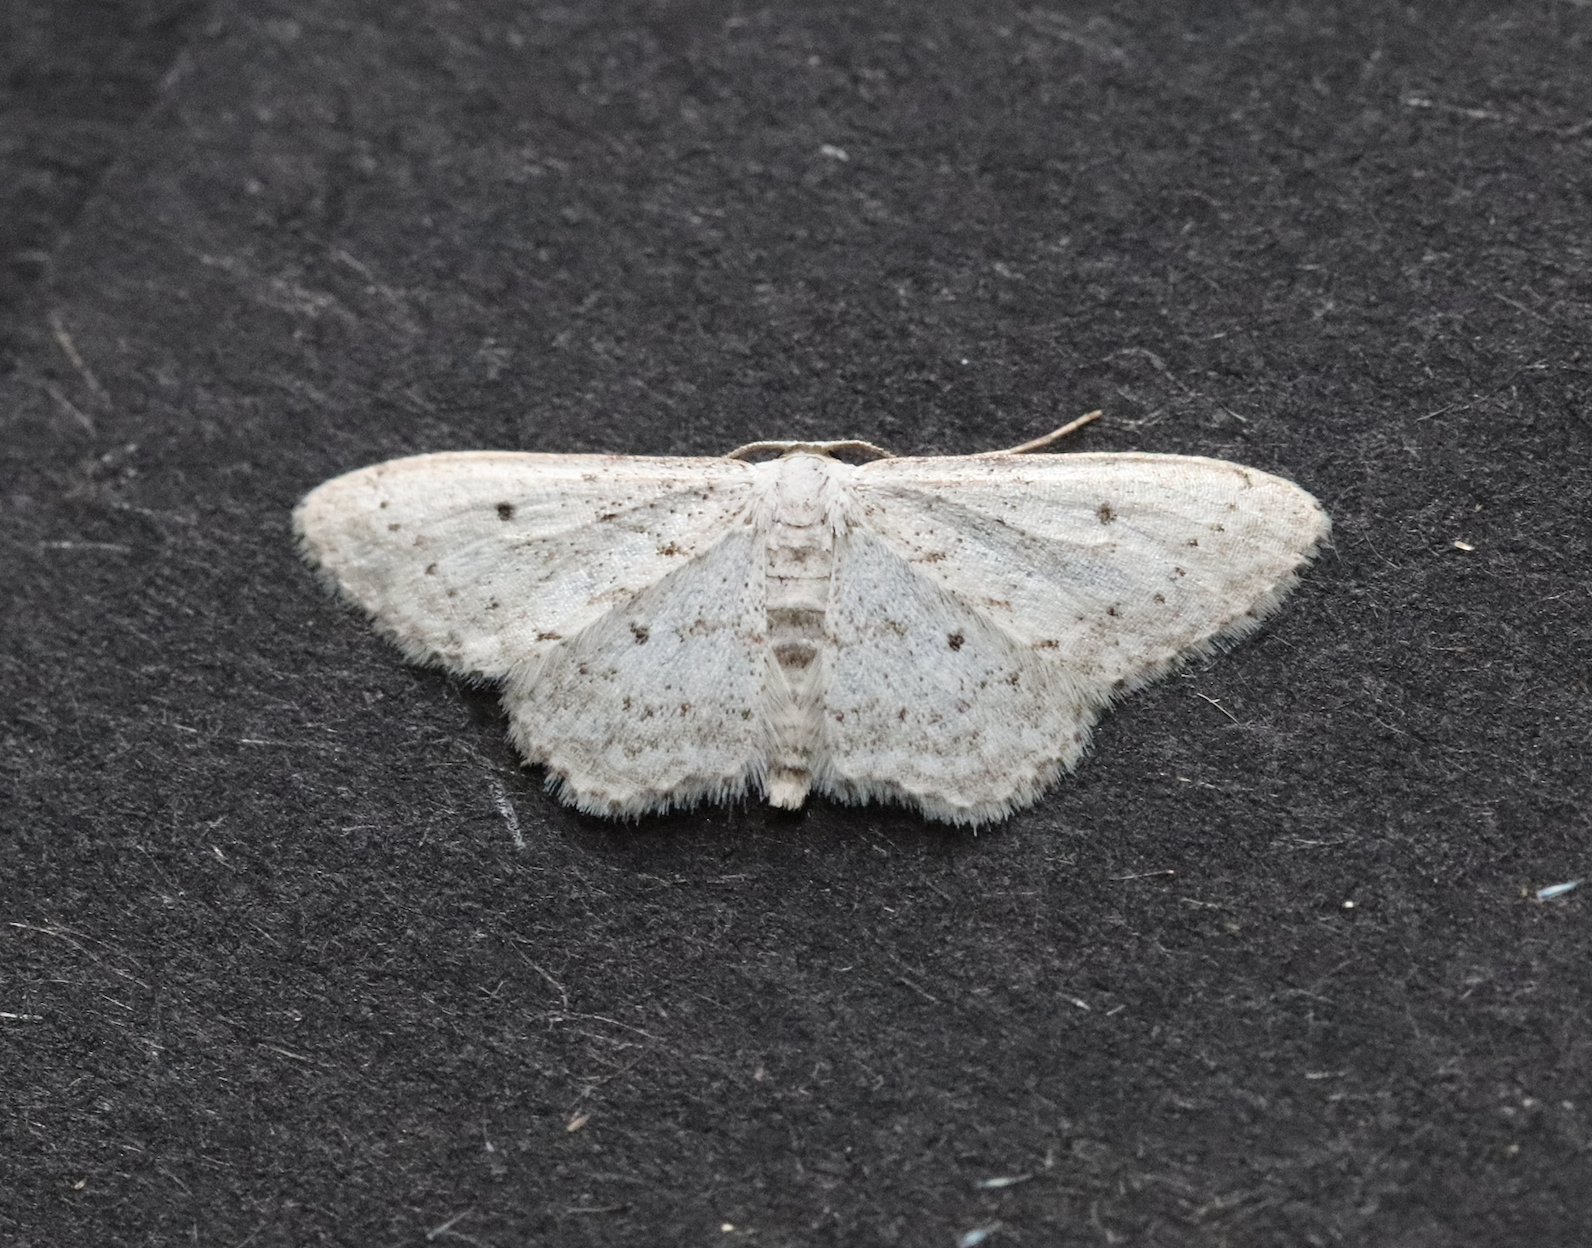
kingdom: Animalia
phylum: Arthropoda
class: Insecta
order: Lepidoptera
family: Geometridae
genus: Idaea
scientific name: Idaea seriata
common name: Small dusty wave
